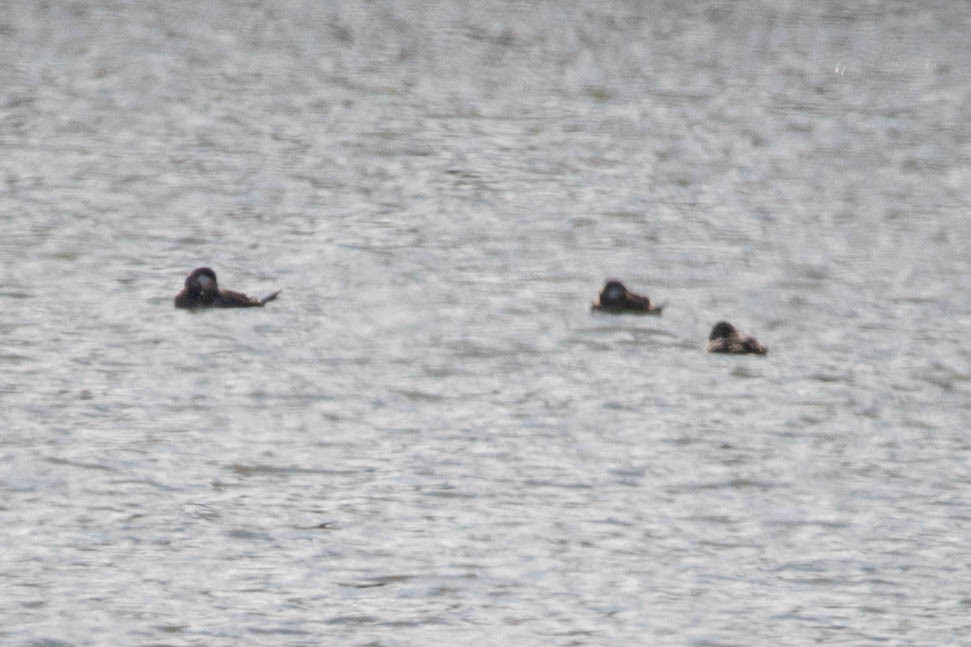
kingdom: Animalia
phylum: Chordata
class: Aves
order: Anseriformes
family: Anatidae
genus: Oxyura
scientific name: Oxyura jamaicensis
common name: Ruddy duck
